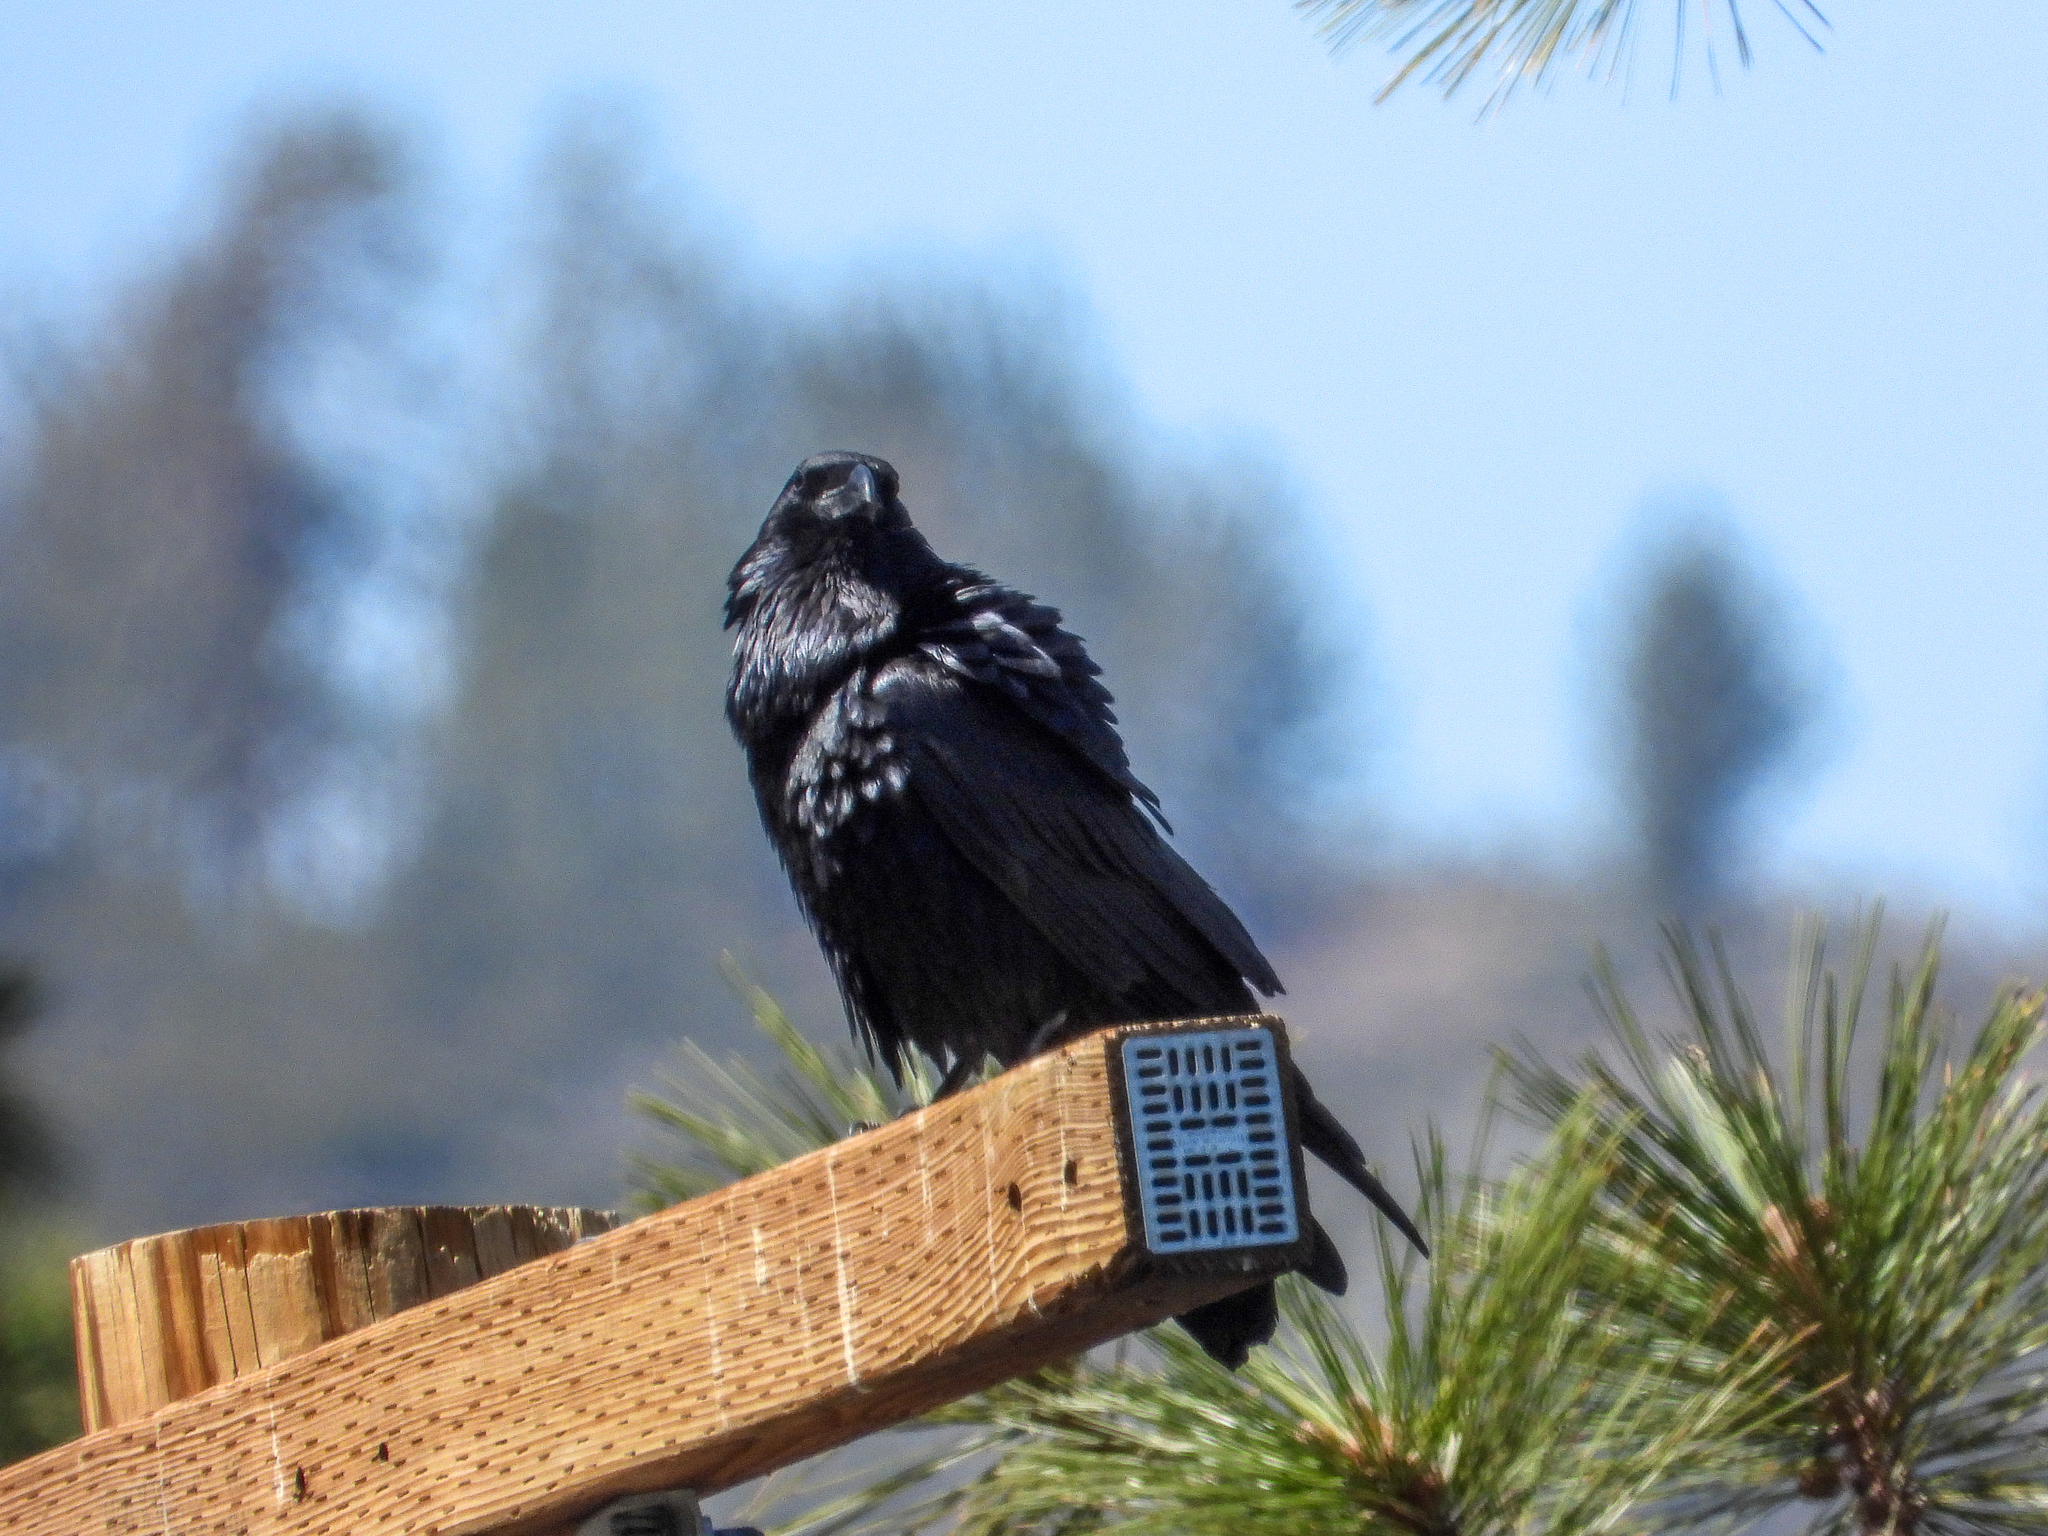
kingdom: Animalia
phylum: Chordata
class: Aves
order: Passeriformes
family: Corvidae
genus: Corvus
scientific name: Corvus corax
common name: Common raven
